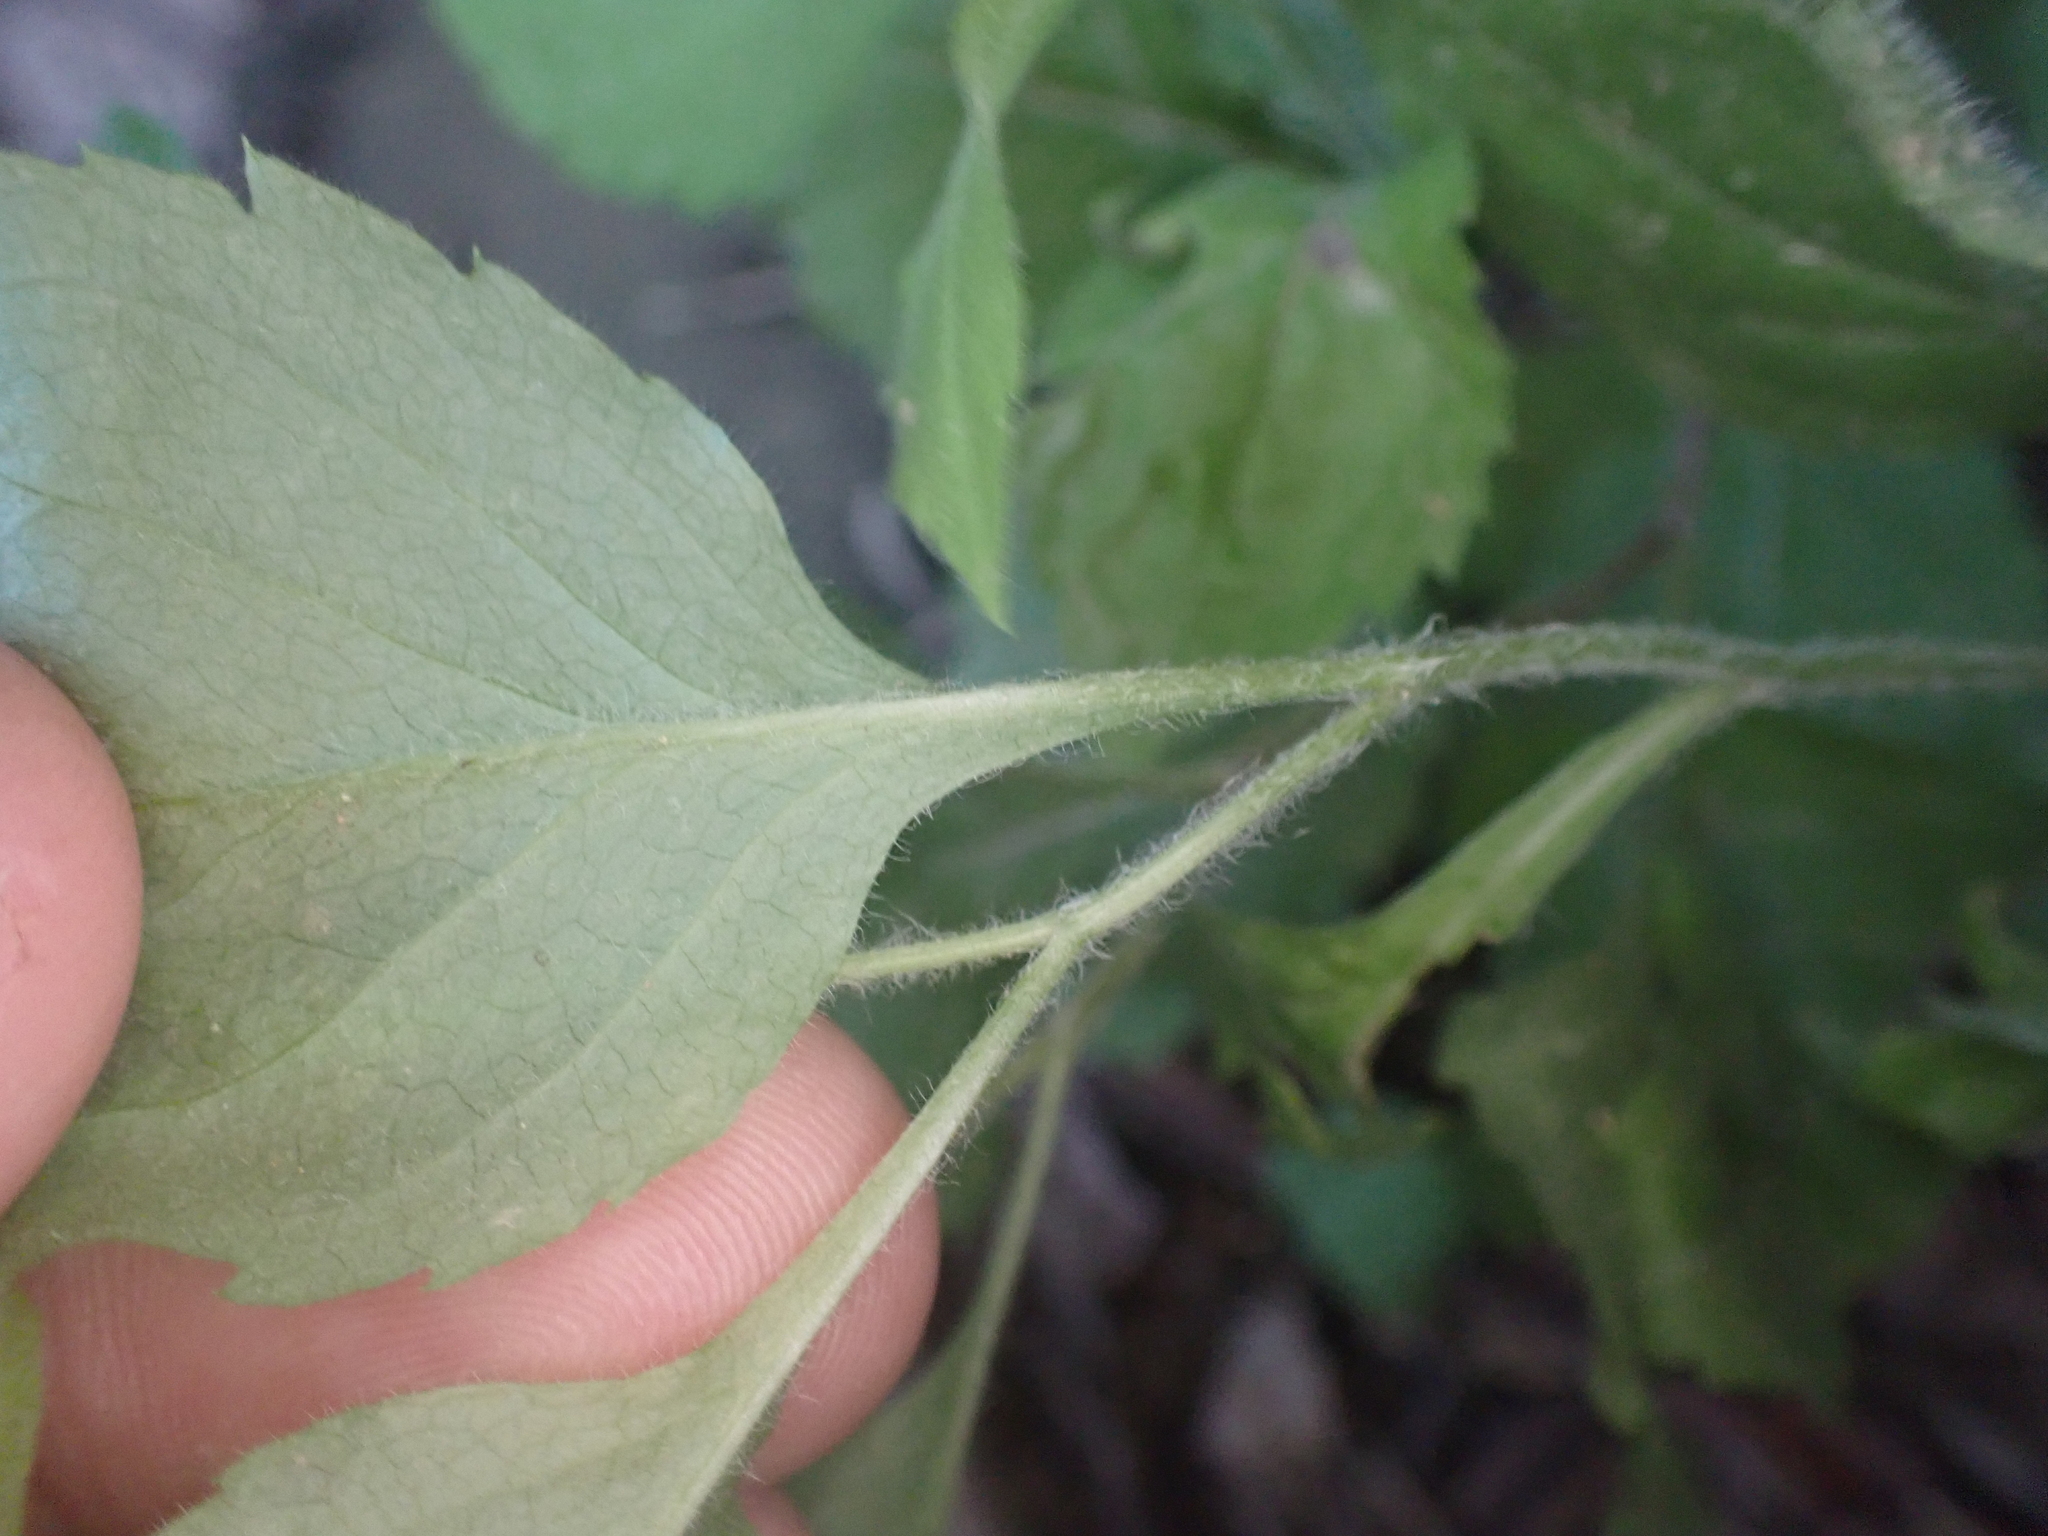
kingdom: Plantae
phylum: Tracheophyta
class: Magnoliopsida
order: Asterales
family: Asteraceae
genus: Solidago
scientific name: Solidago albopilosa
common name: White-hair goldenrod
